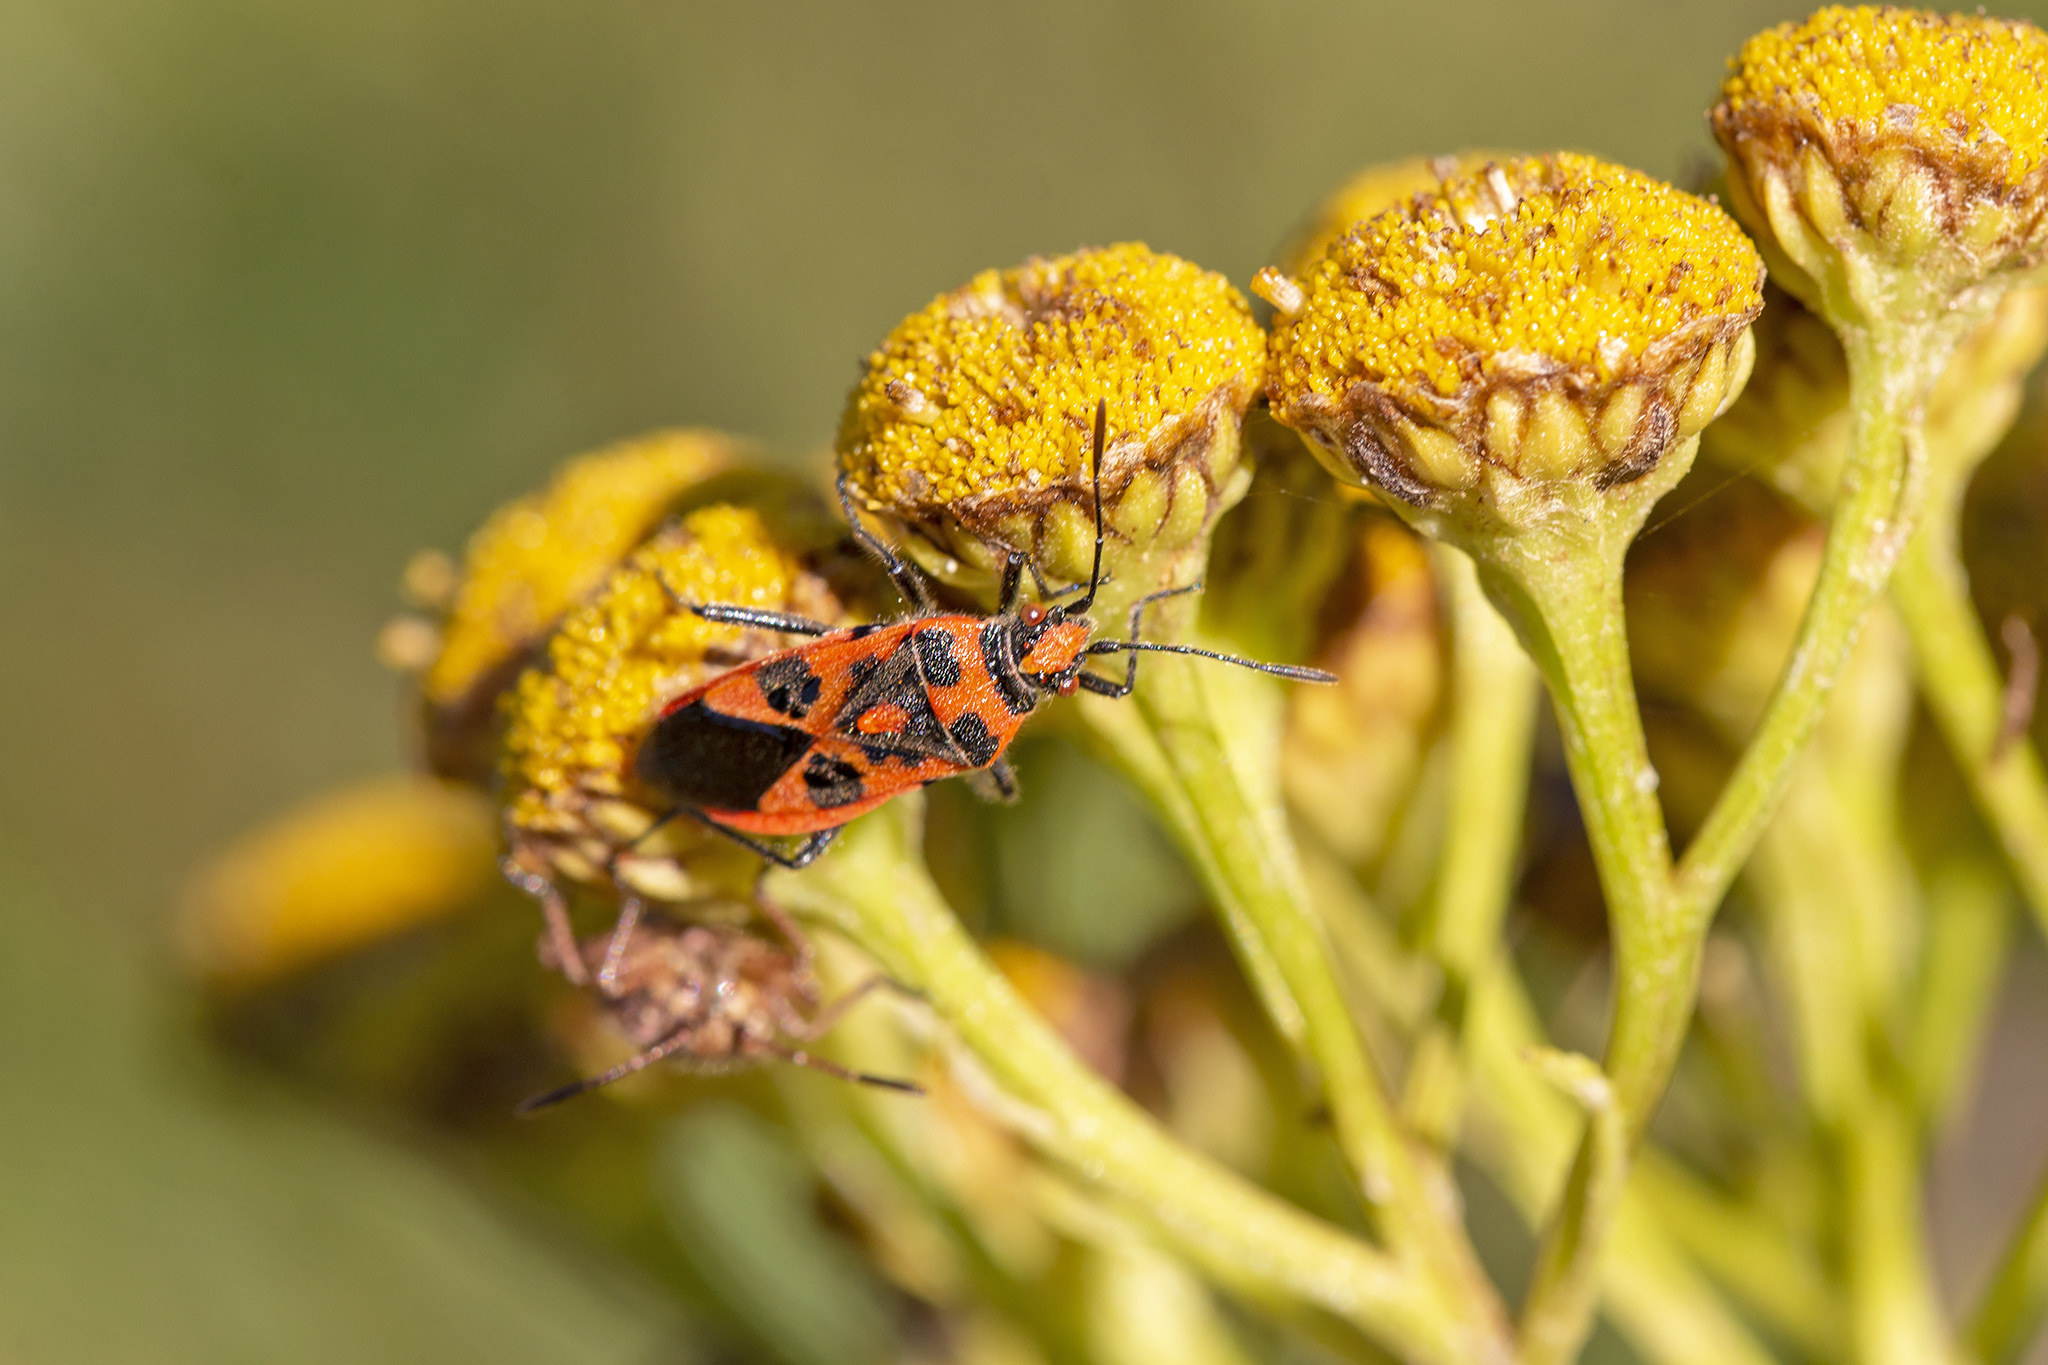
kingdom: Animalia
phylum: Arthropoda
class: Insecta
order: Hemiptera
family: Rhopalidae
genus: Corizus
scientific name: Corizus hyoscyami
